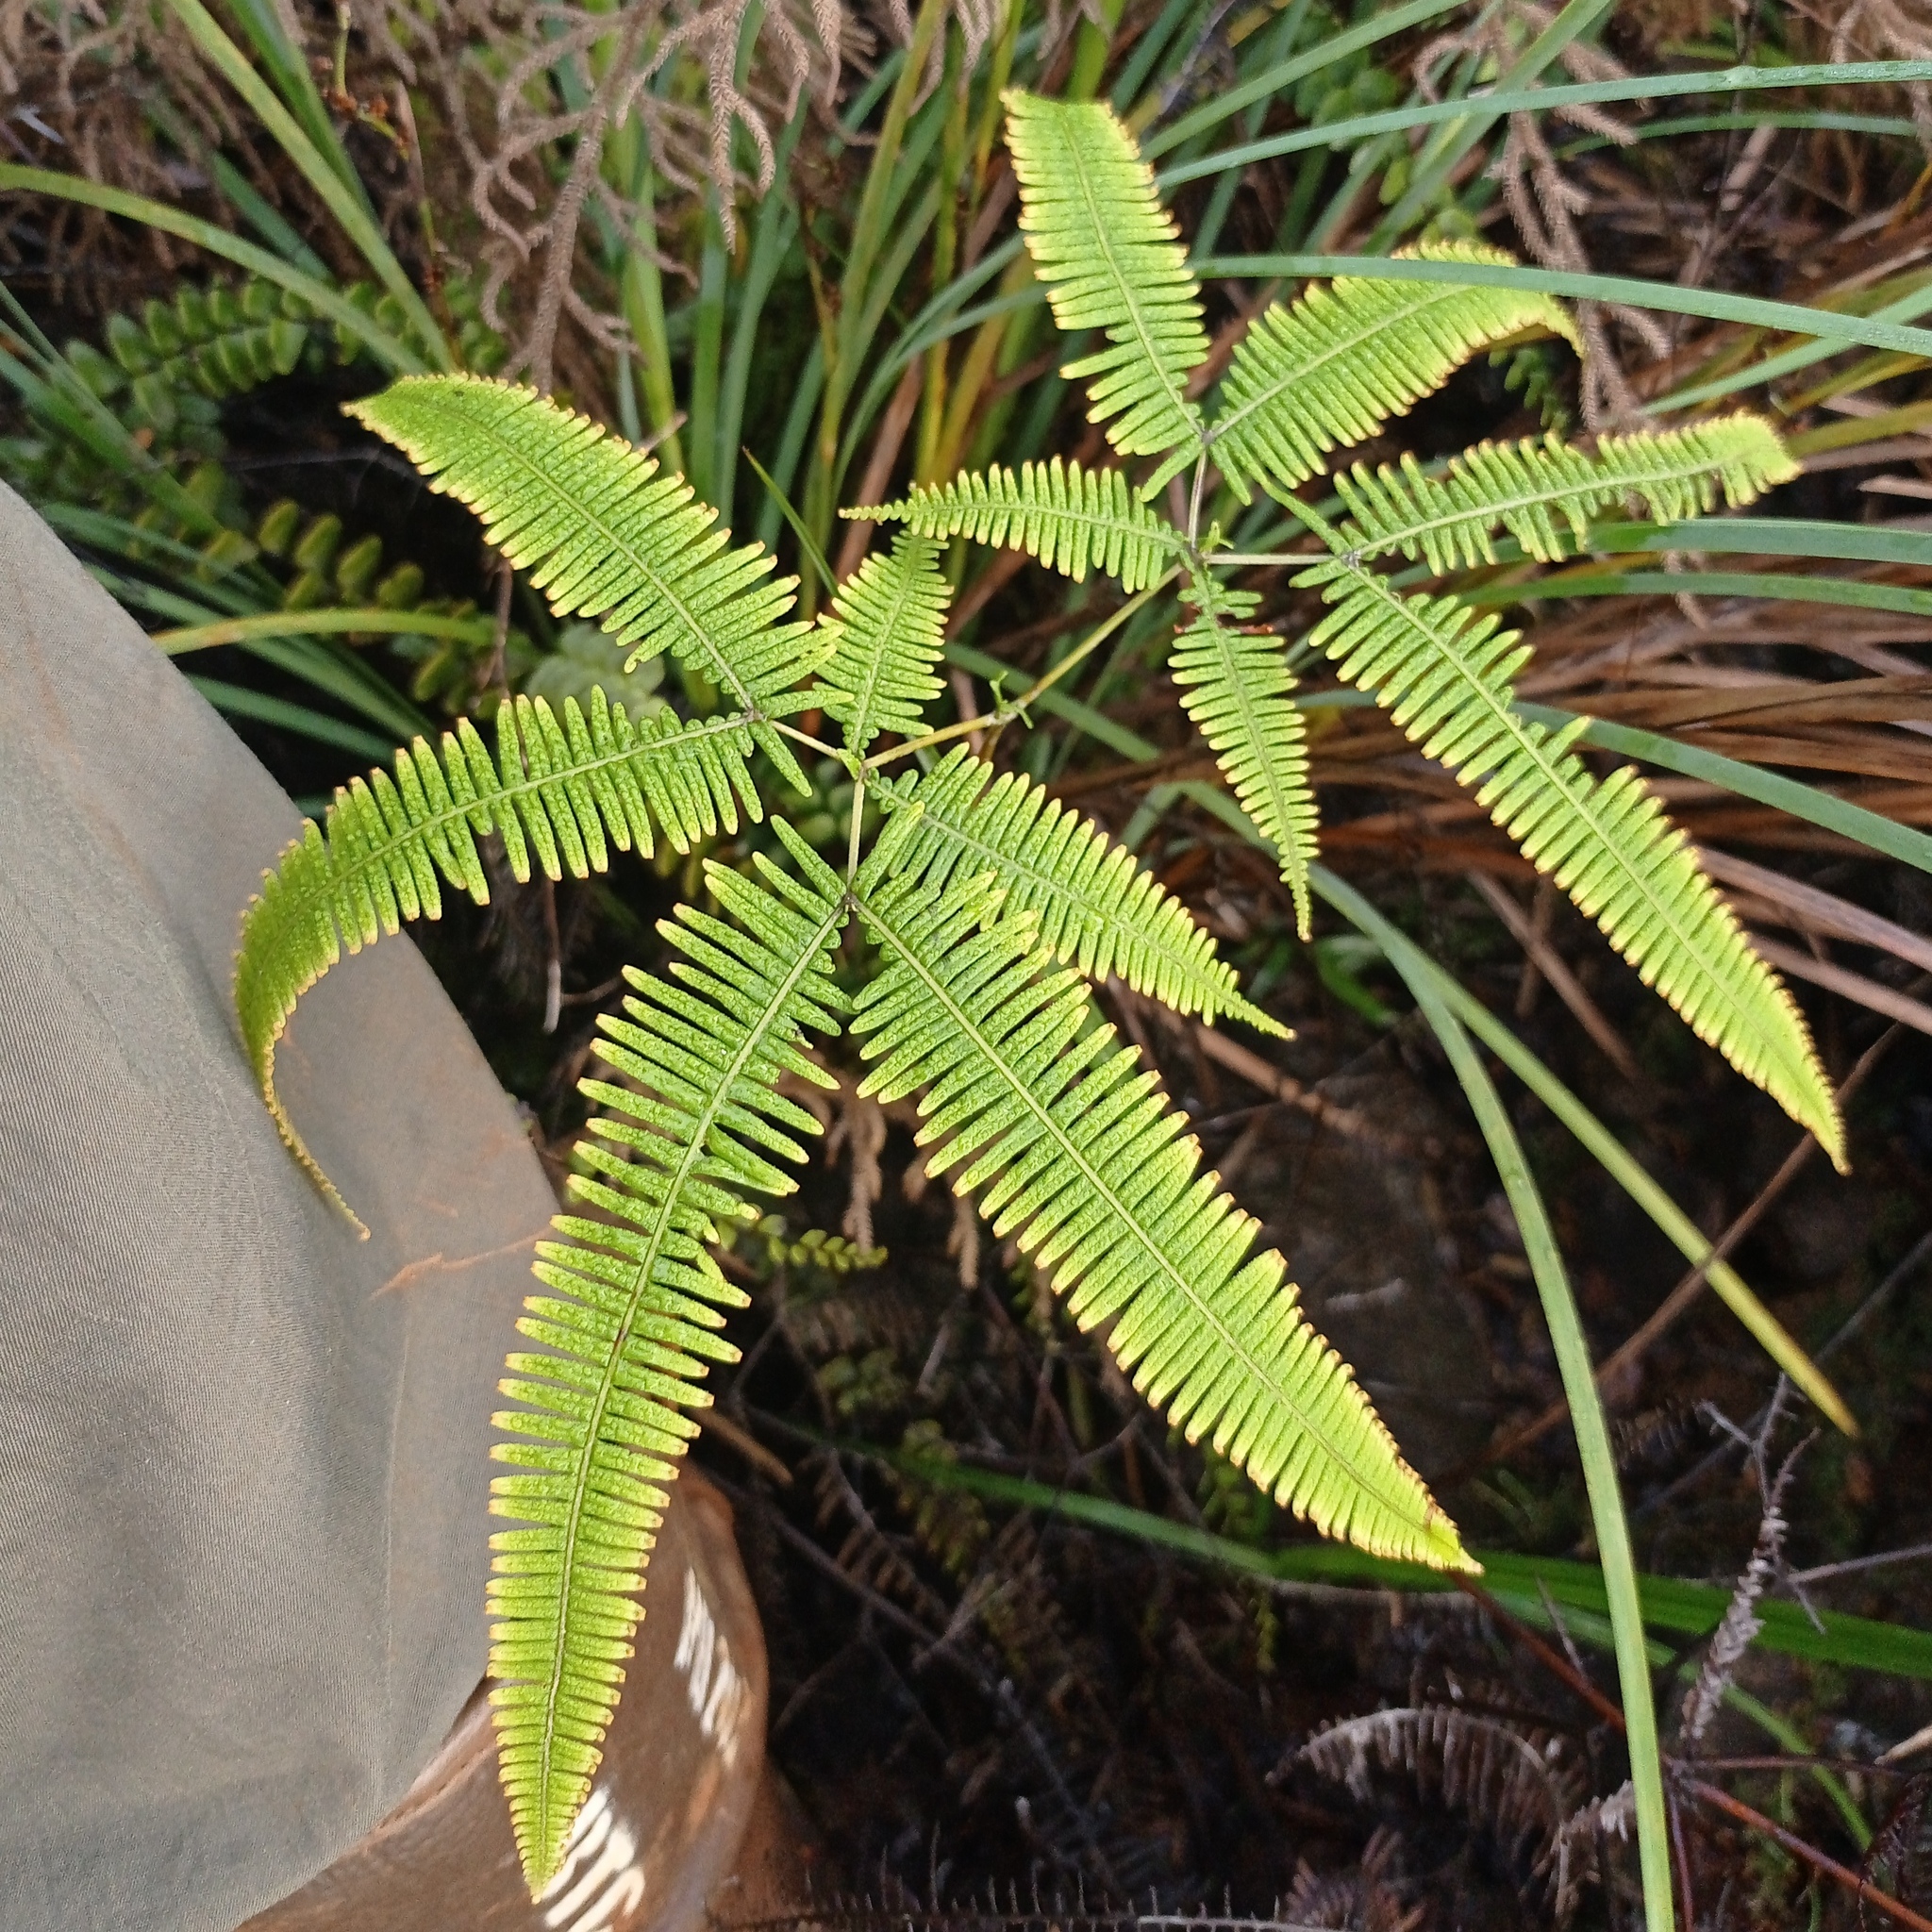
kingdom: Plantae
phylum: Tracheophyta
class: Polypodiopsida
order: Gleicheniales
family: Gleicheniaceae
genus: Dicranopteris
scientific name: Dicranopteris linearis
